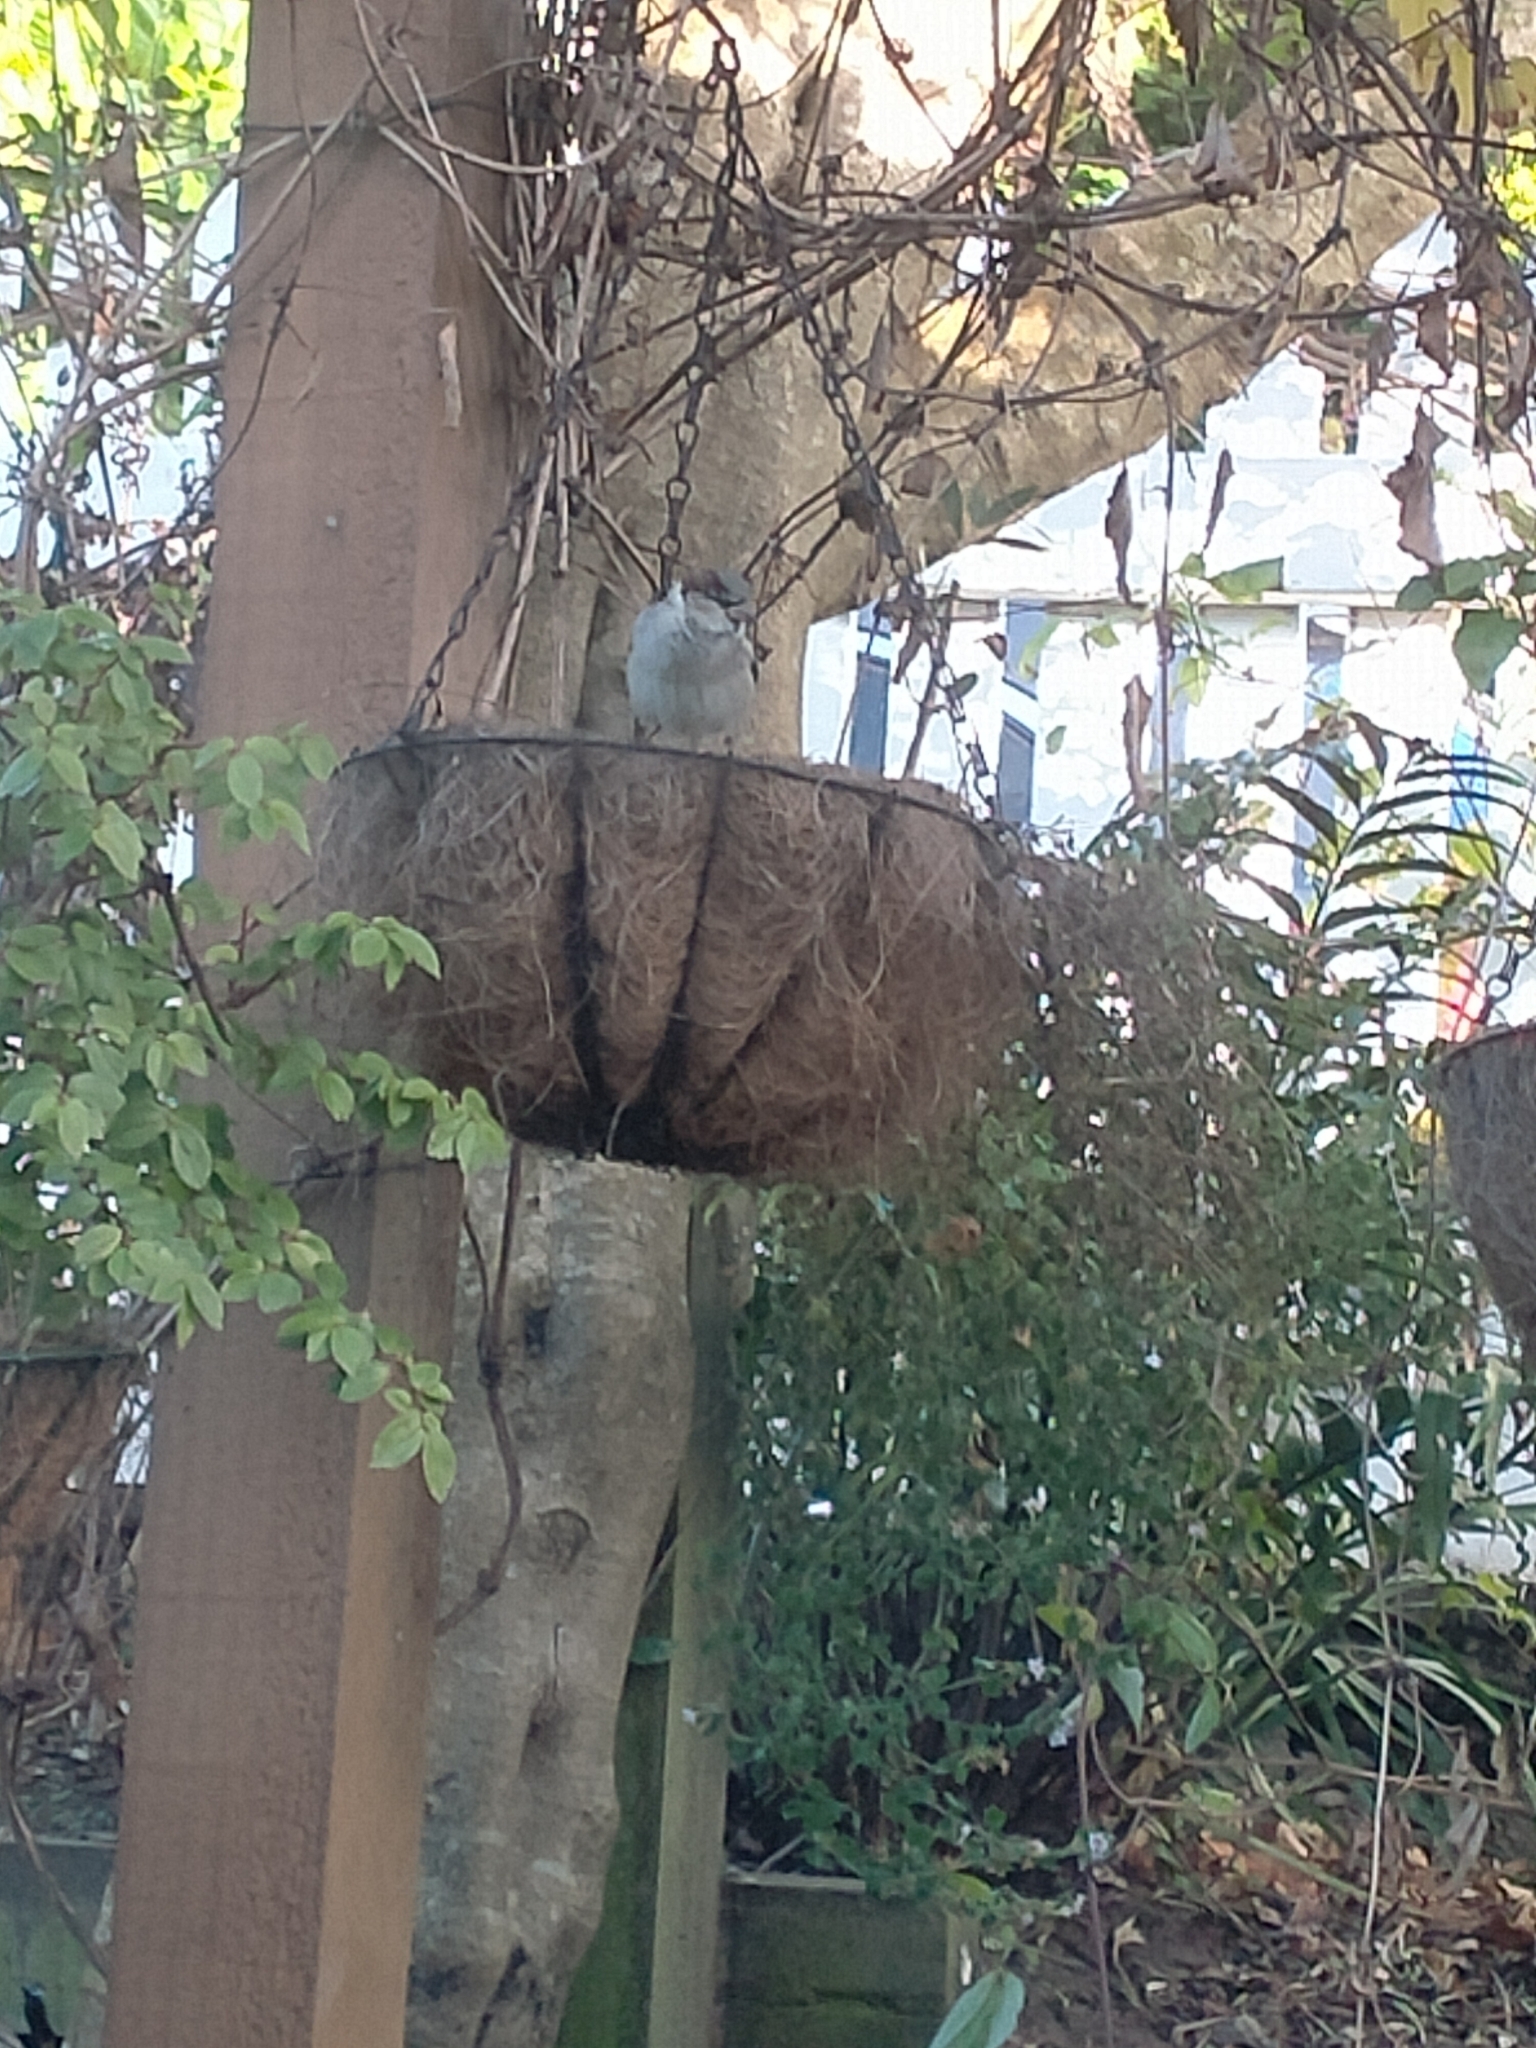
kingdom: Animalia
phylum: Chordata
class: Aves
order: Passeriformes
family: Passeridae
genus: Passer
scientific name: Passer domesticus
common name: House sparrow
